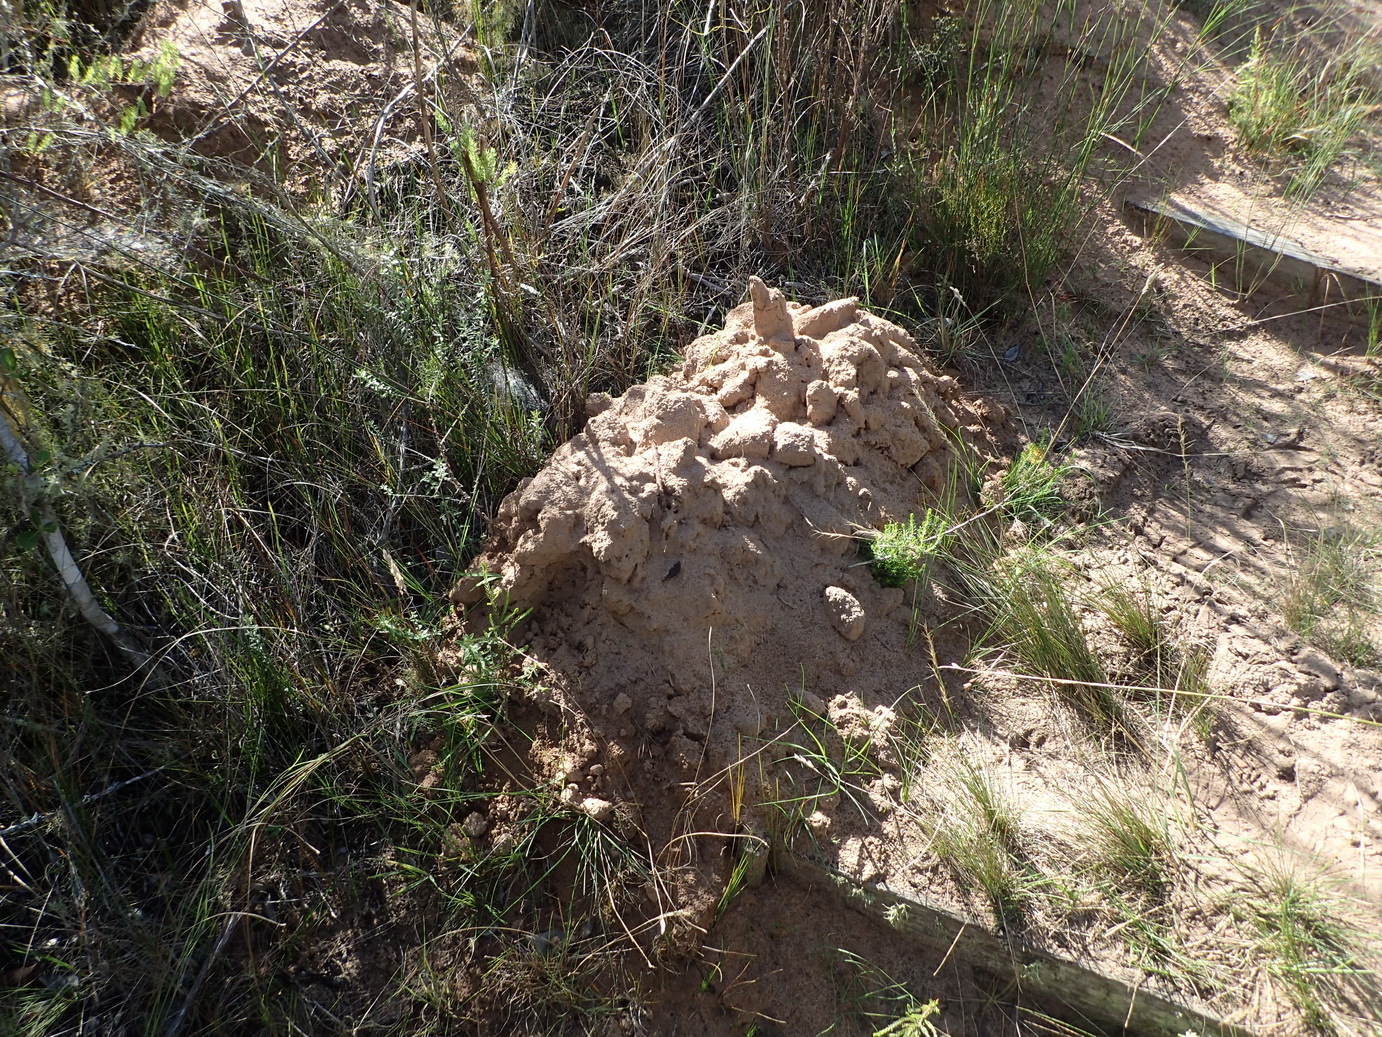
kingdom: Animalia
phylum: Chordata
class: Mammalia
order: Rodentia
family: Bathyergidae
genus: Bathyergus
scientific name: Bathyergus suillus
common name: Cape dune mole rat
